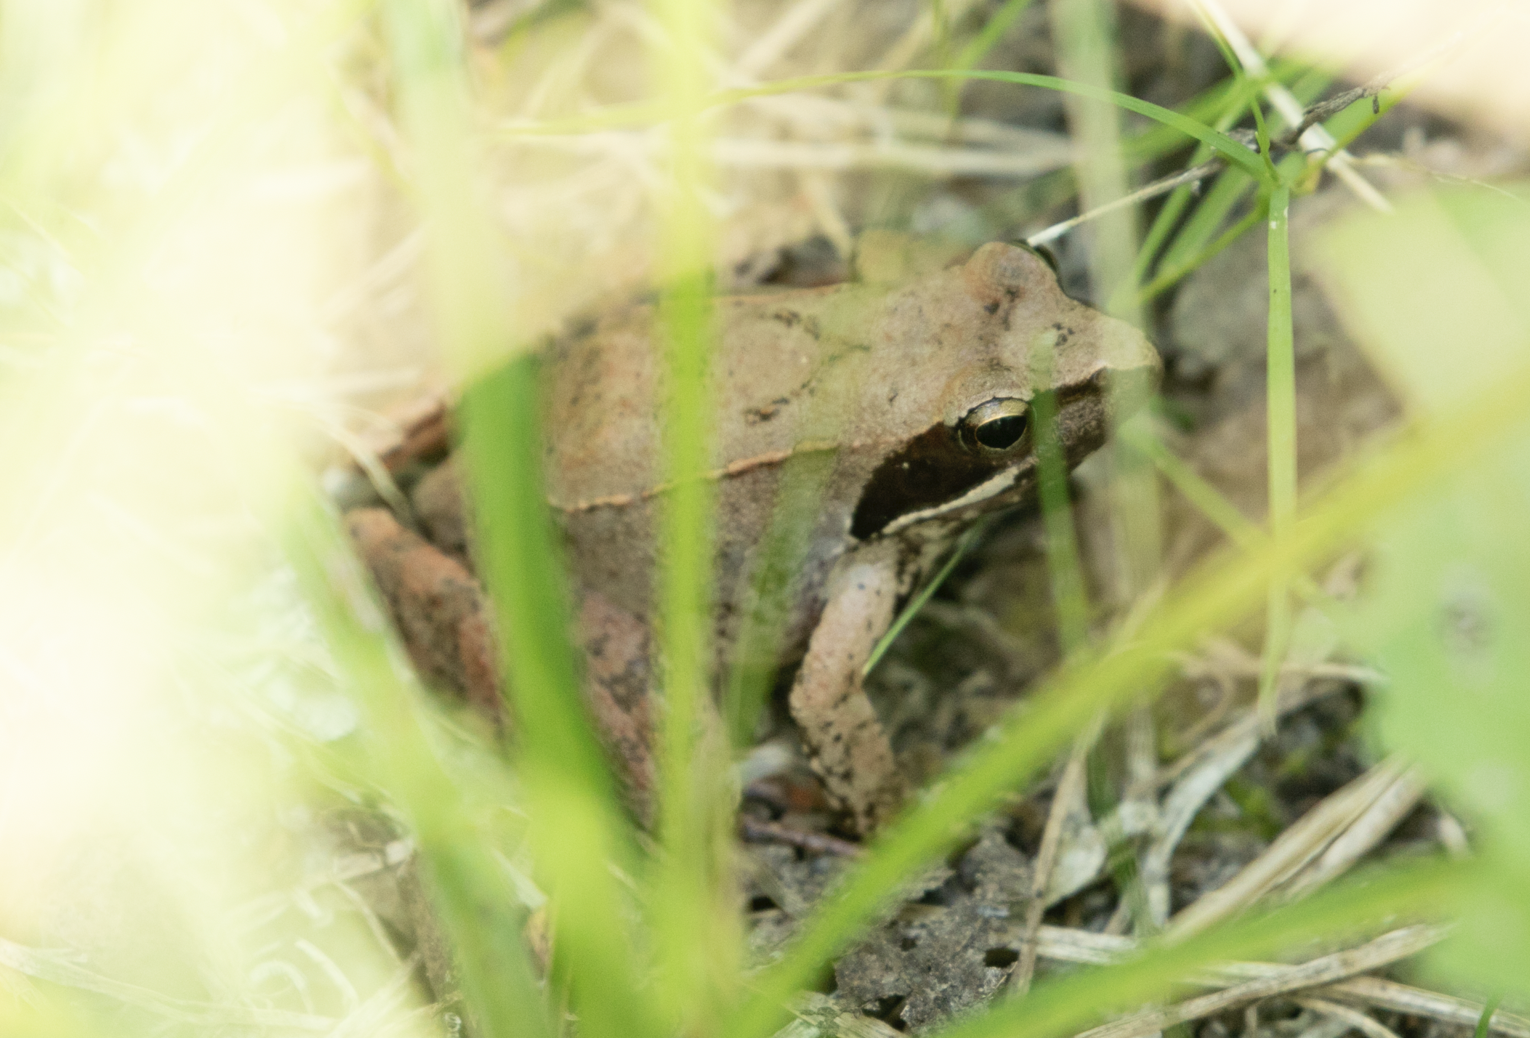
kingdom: Animalia
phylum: Chordata
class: Amphibia
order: Anura
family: Ranidae
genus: Rana
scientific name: Rana latastei
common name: Italian agile frog
